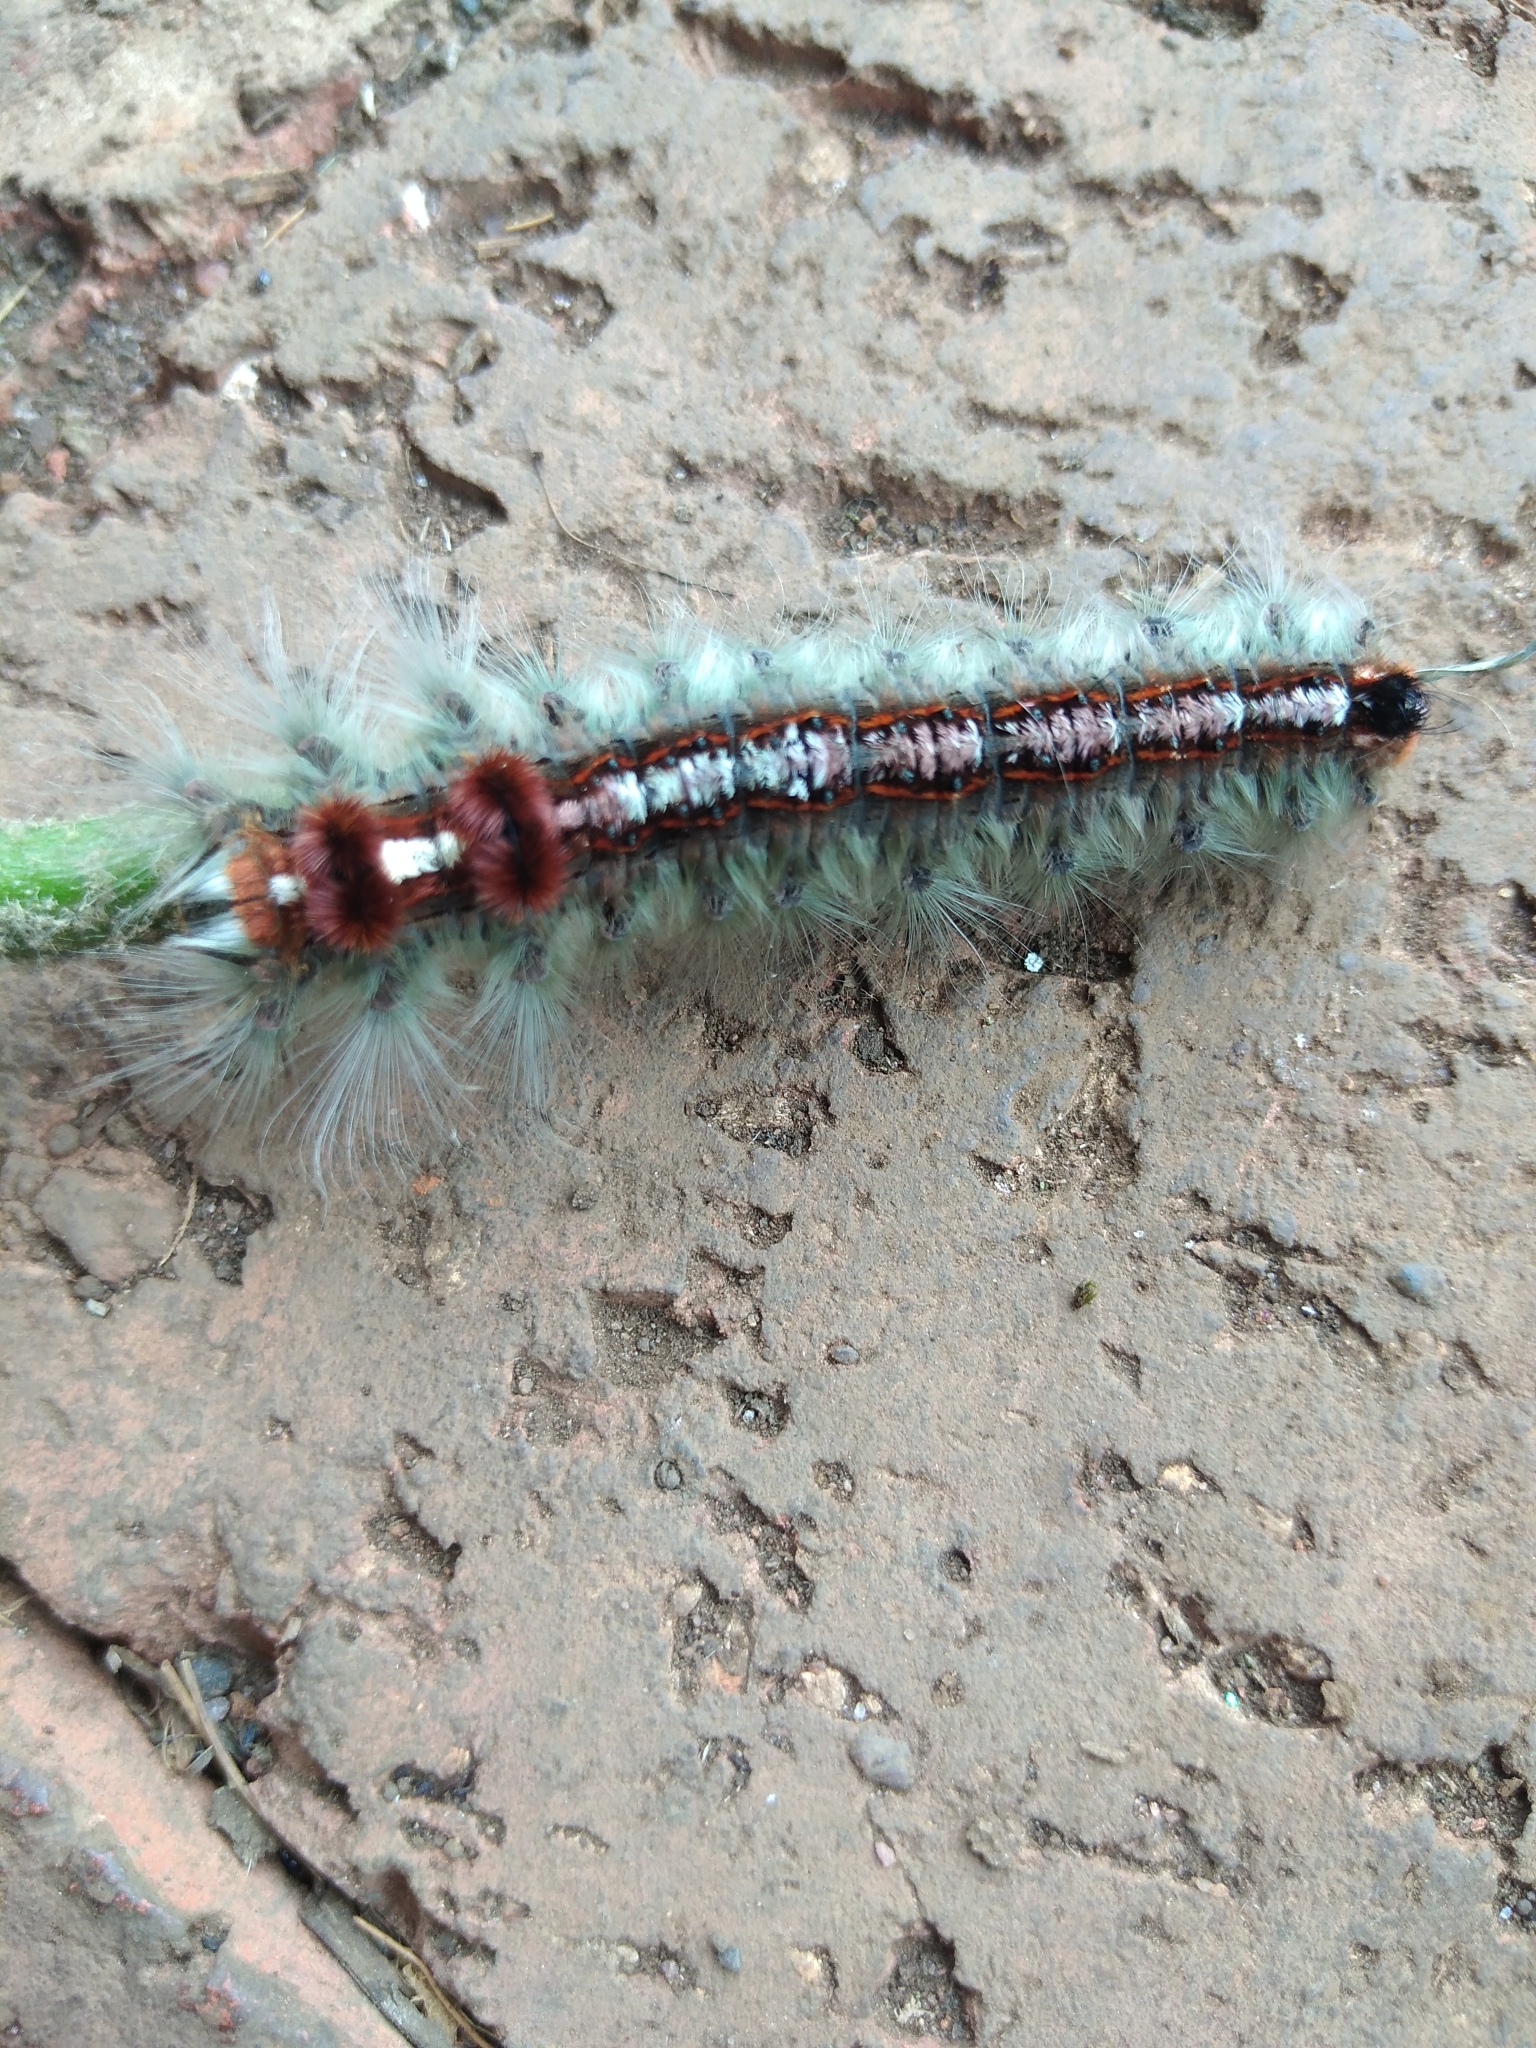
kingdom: Animalia
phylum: Arthropoda
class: Insecta
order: Lepidoptera
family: Lasiocampidae
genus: Eutricha
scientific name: Eutricha obscura
